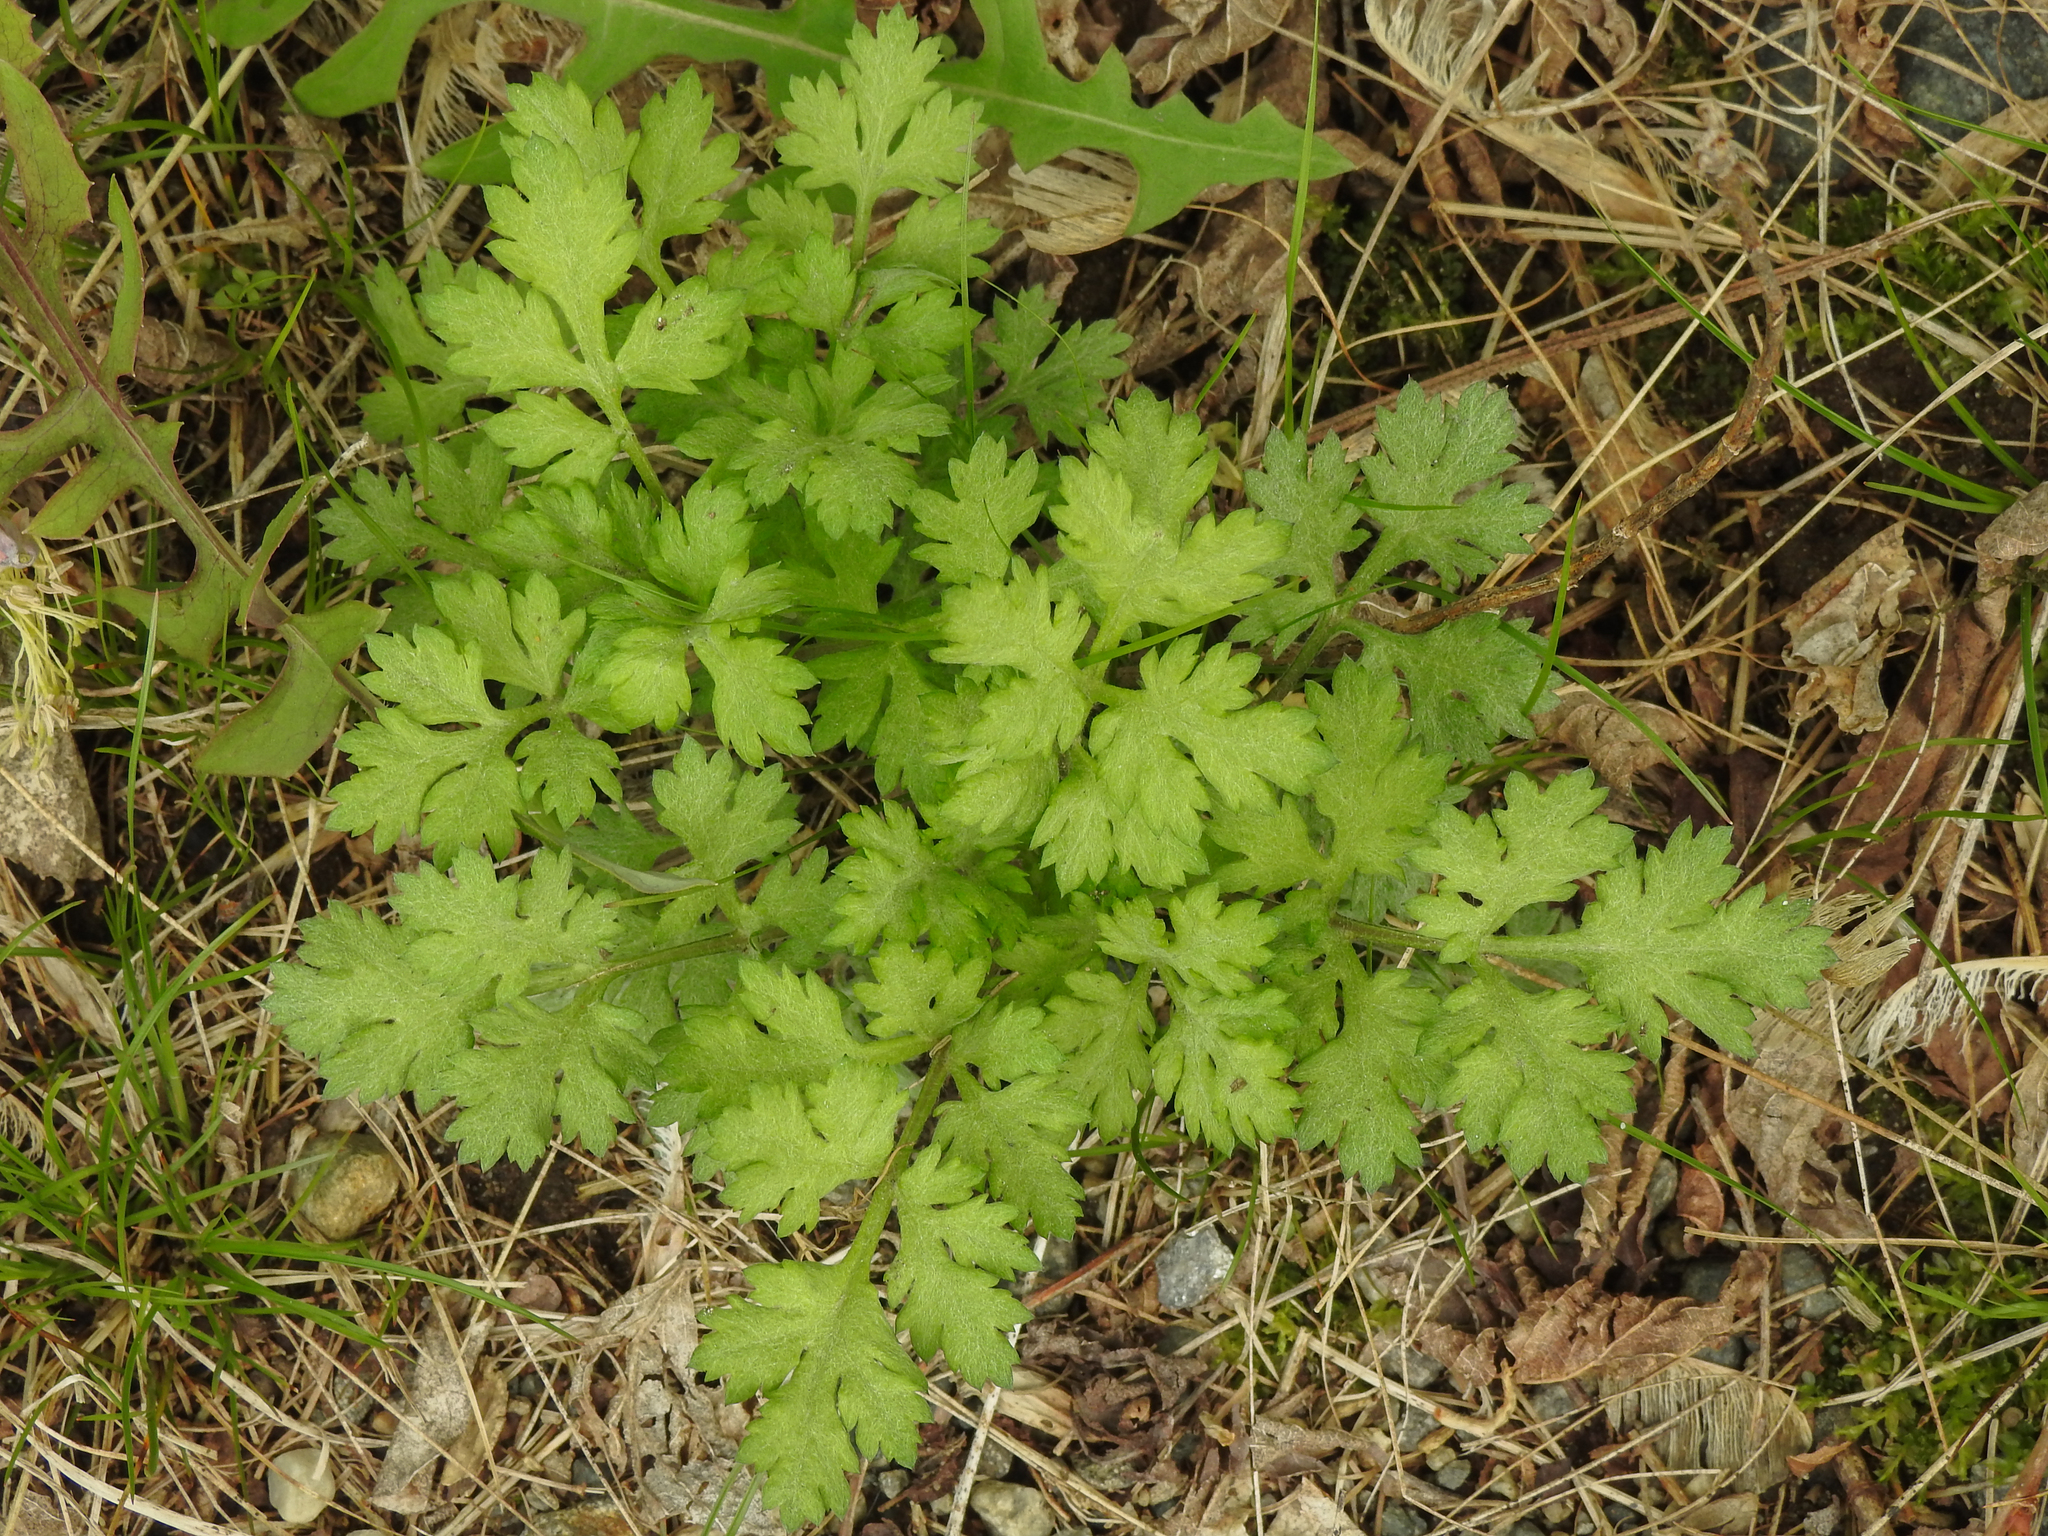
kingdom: Plantae
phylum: Tracheophyta
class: Magnoliopsida
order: Asterales
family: Asteraceae
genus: Artemisia
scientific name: Artemisia vulgaris
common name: Mugwort
